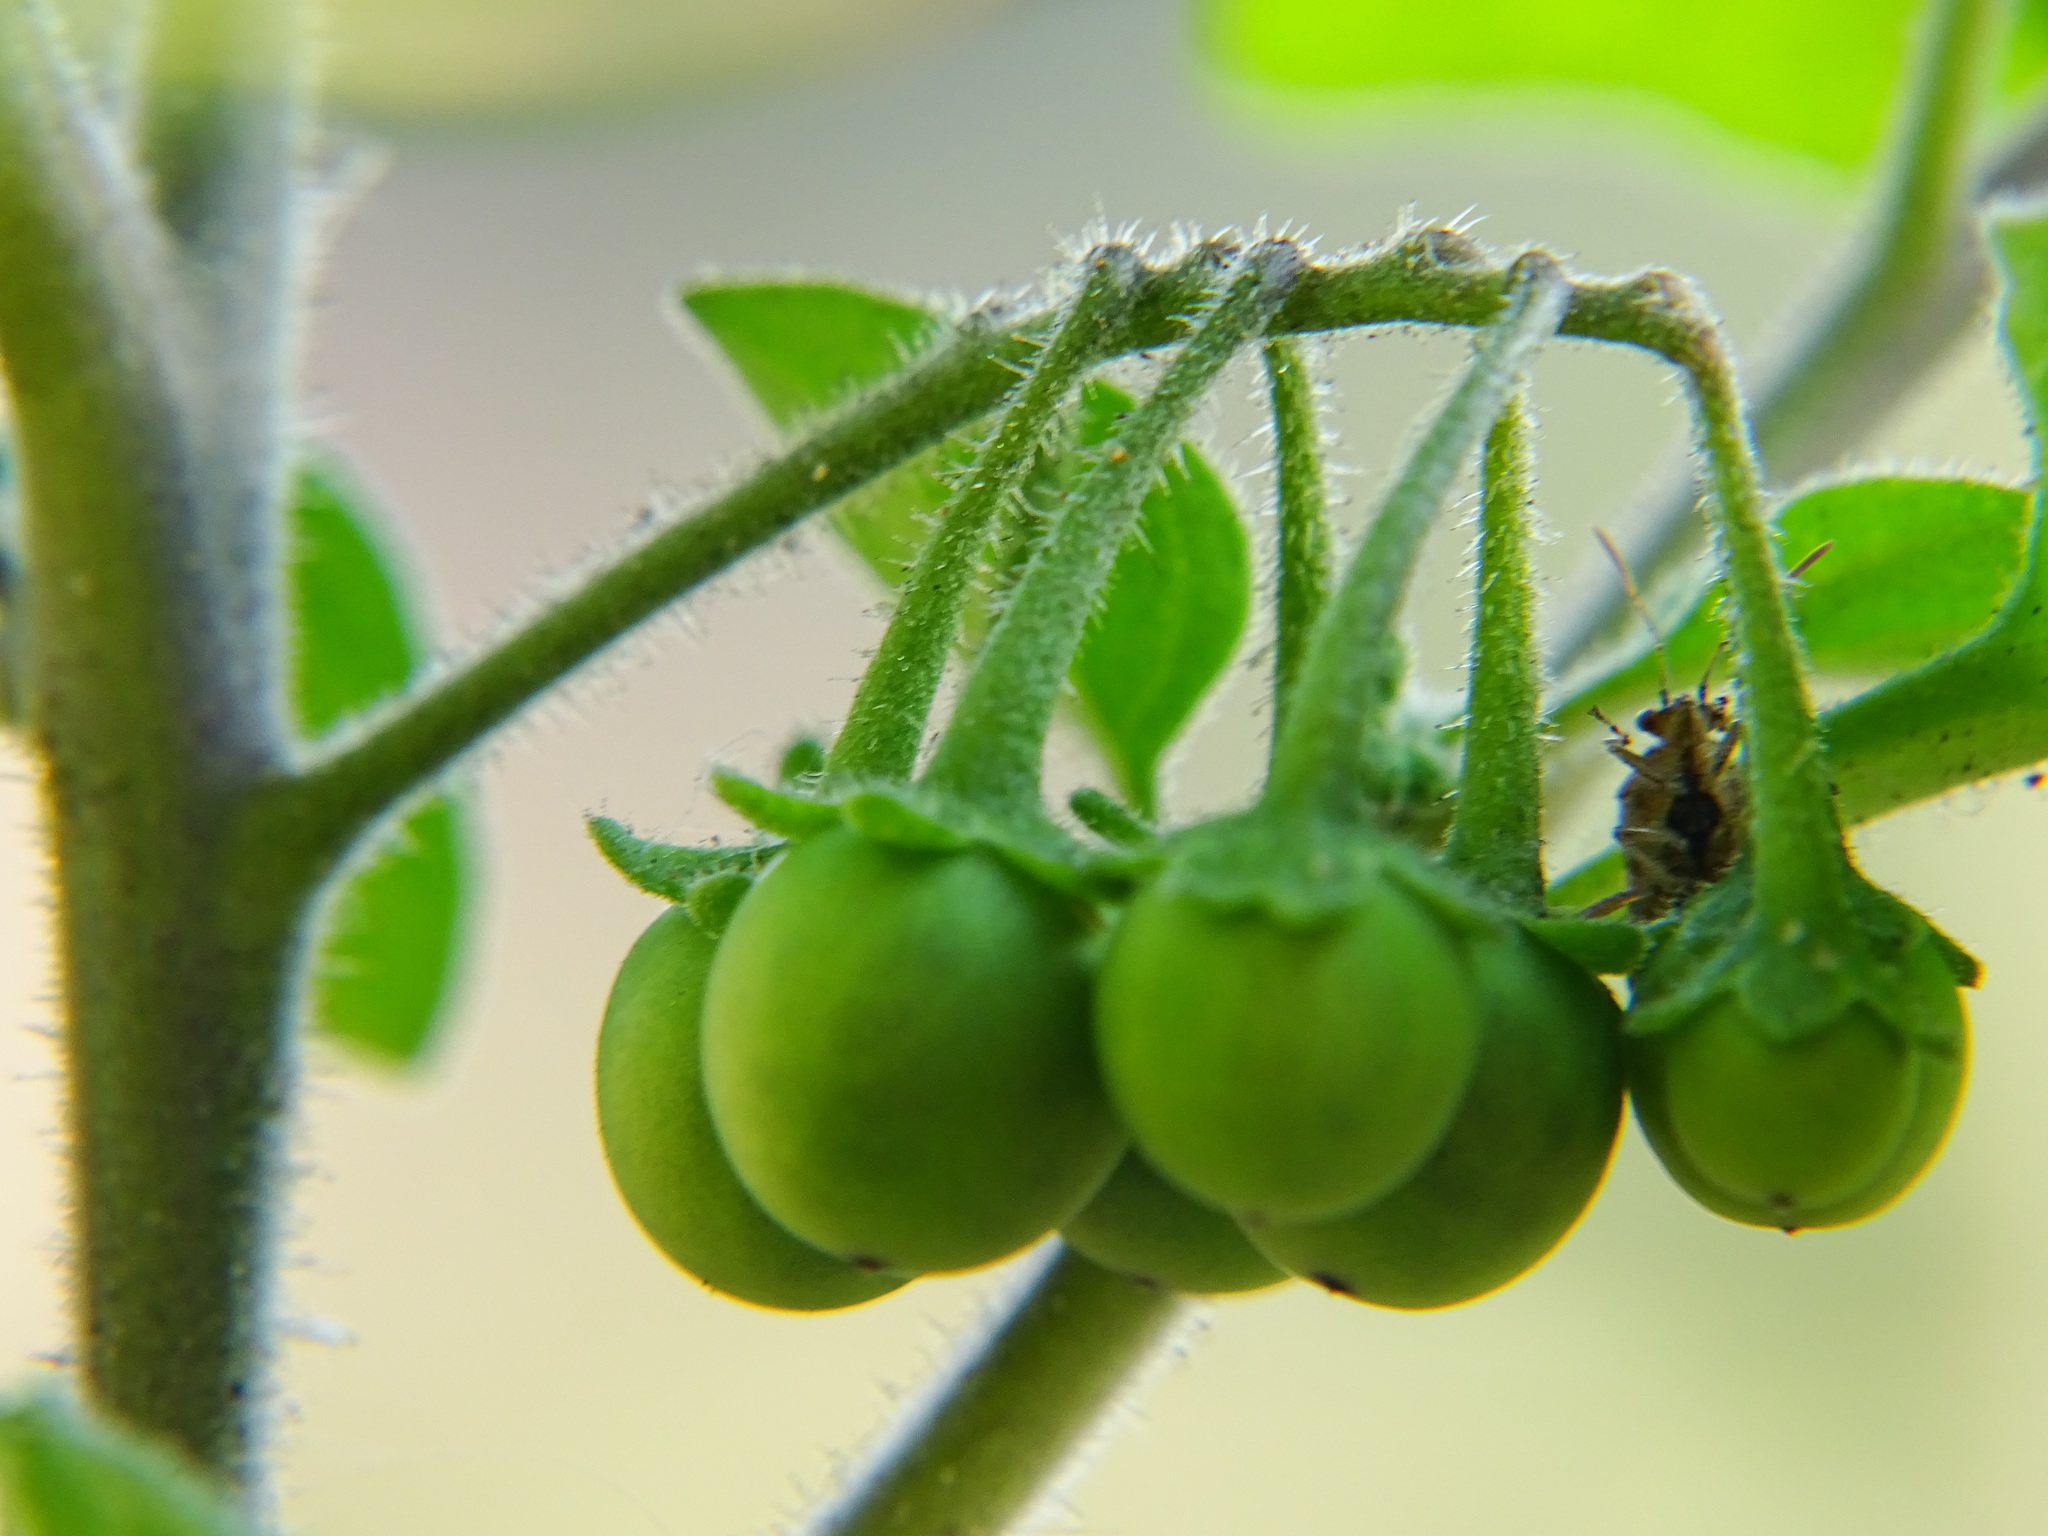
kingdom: Plantae
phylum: Tracheophyta
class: Magnoliopsida
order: Solanales
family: Solanaceae
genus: Solanum
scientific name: Solanum nigrum
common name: Black nightshade
